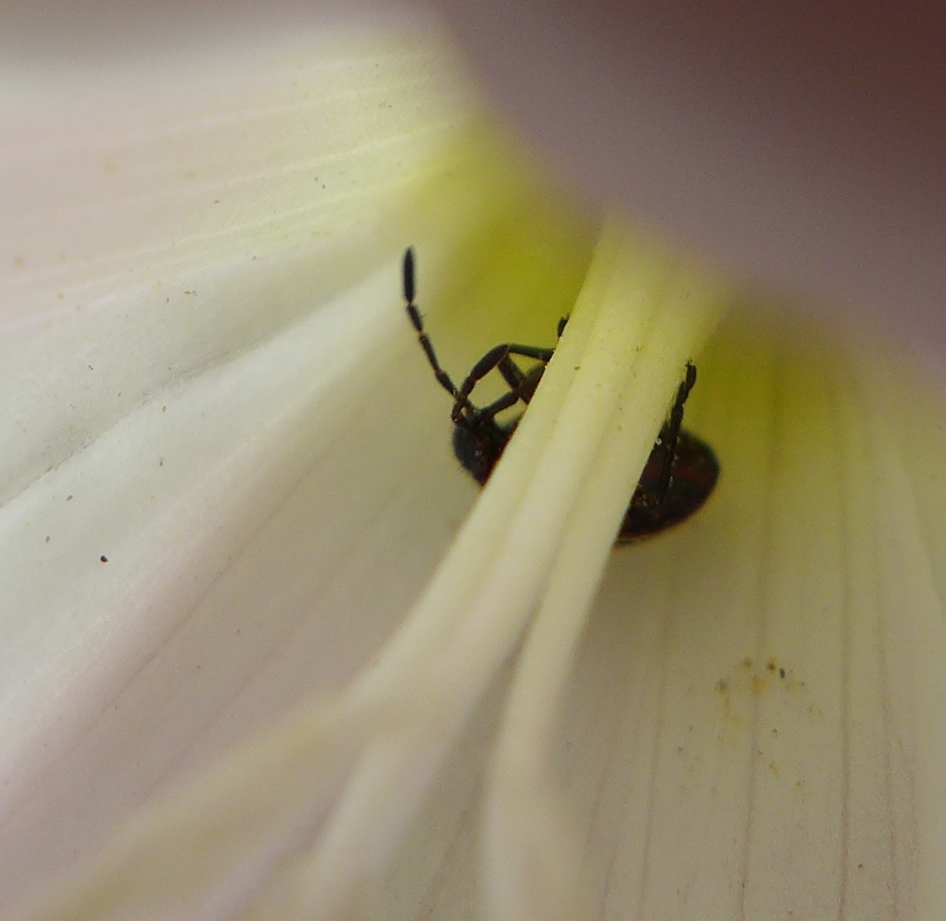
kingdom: Animalia
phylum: Arthropoda
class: Insecta
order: Hemiptera
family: Largidae
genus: Largus
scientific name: Largus californicus
